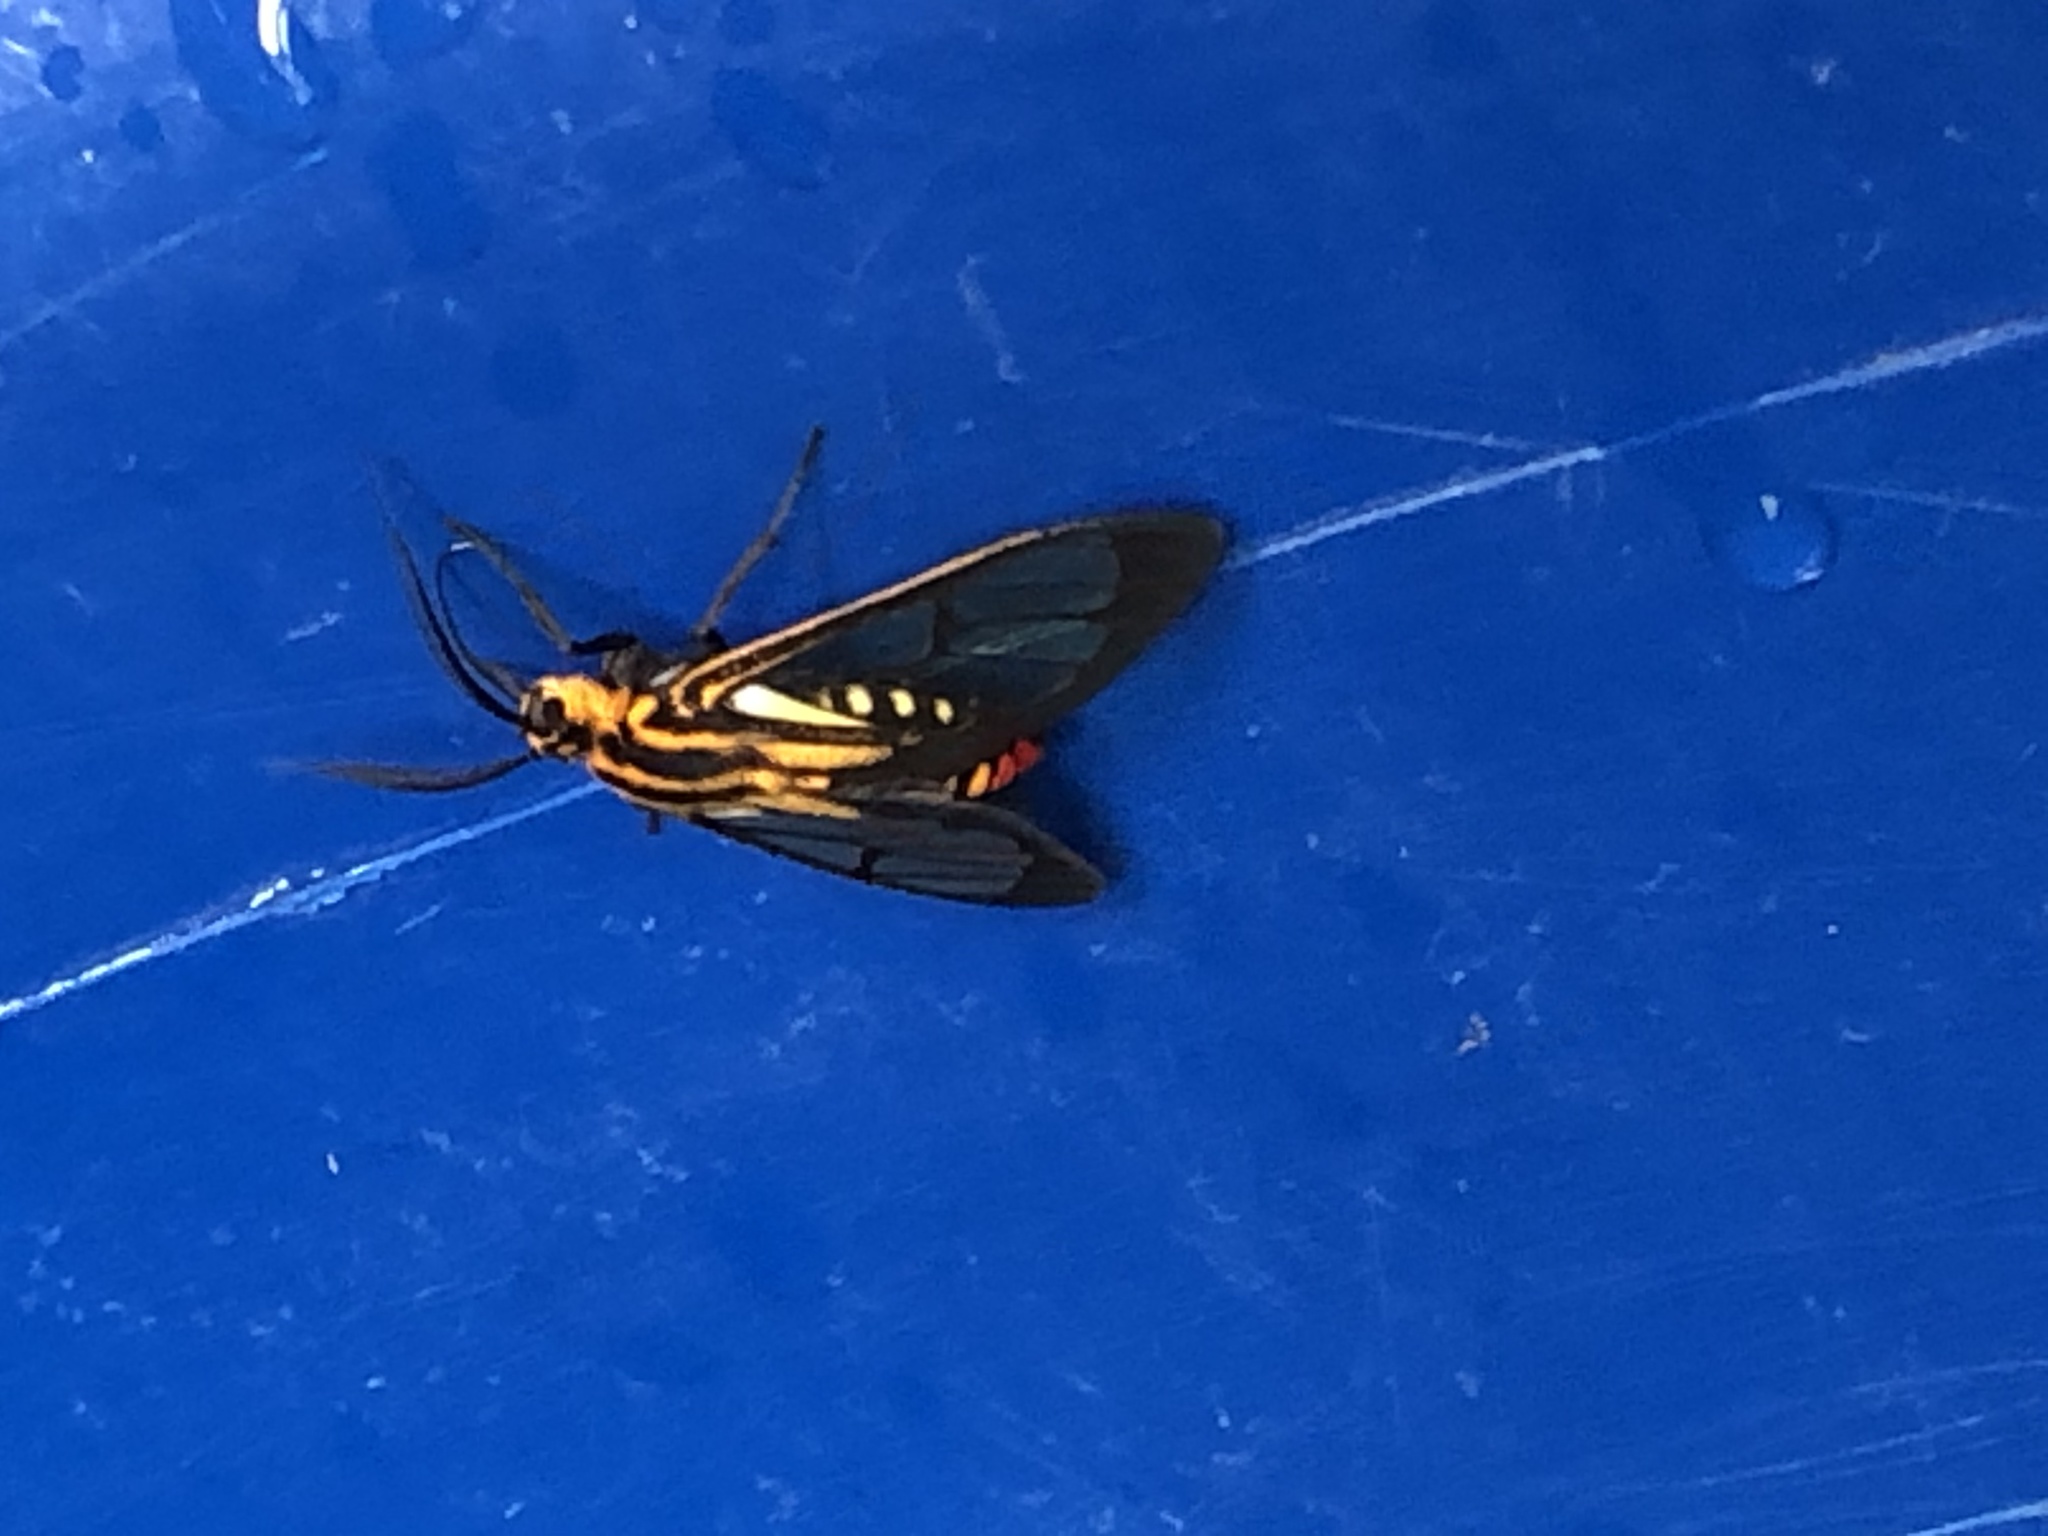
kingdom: Animalia
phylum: Arthropoda
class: Insecta
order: Lepidoptera
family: Erebidae
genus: Paraethria
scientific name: Paraethria flavosignata
